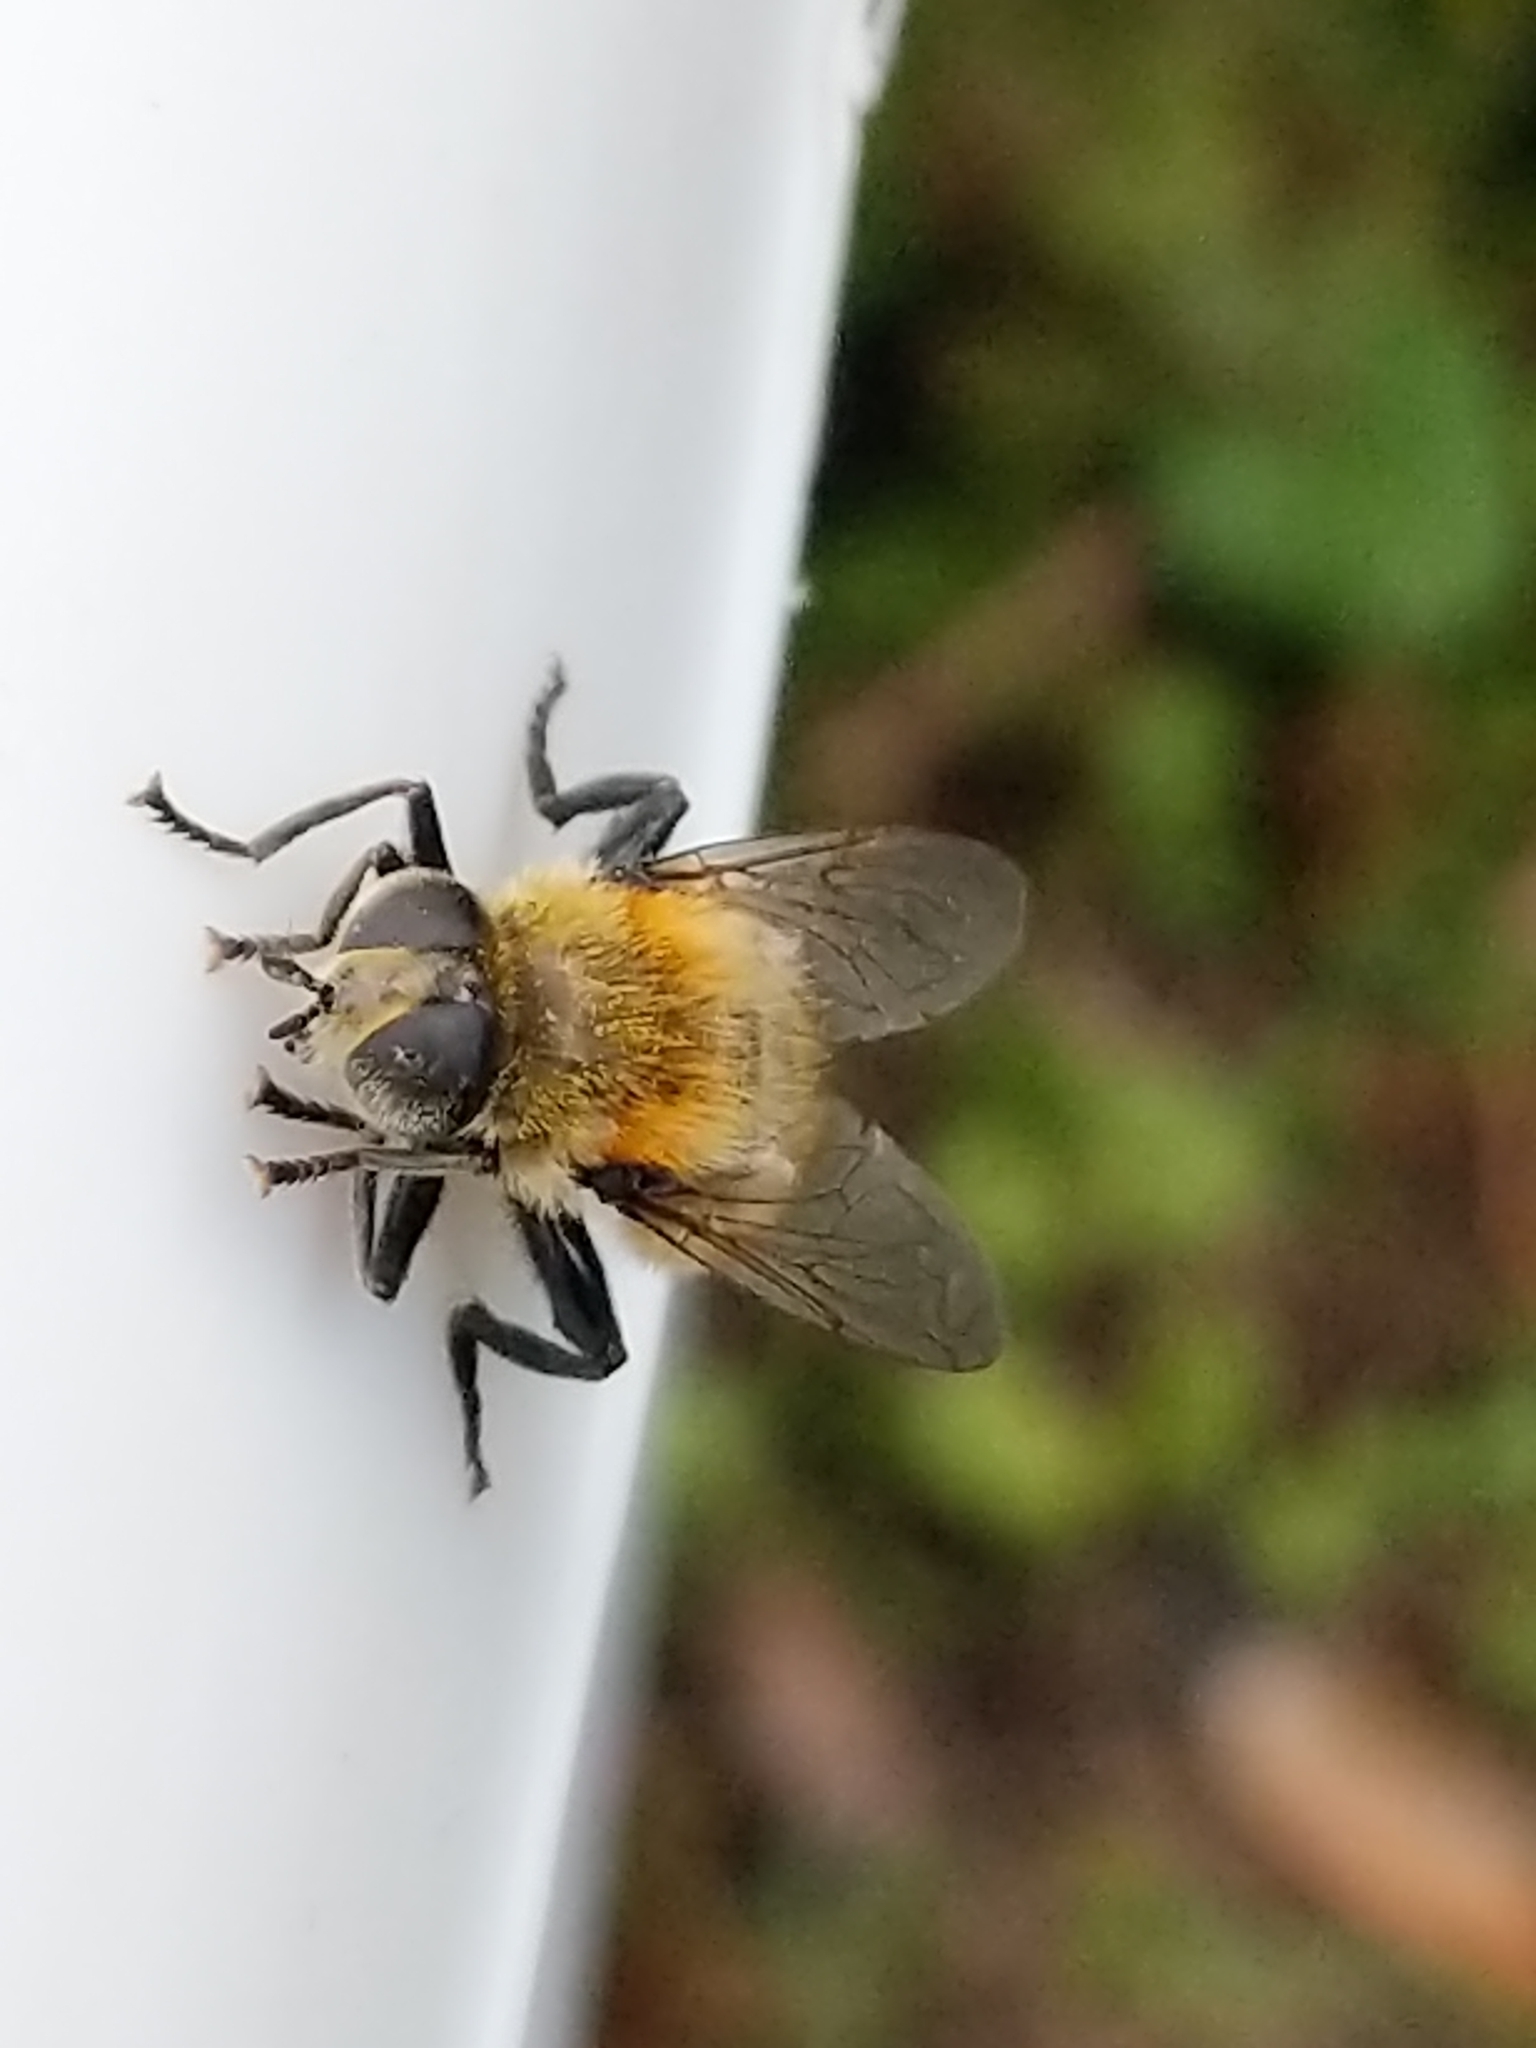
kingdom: Animalia
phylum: Arthropoda
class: Insecta
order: Diptera
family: Syrphidae
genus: Merodon
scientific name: Merodon equestris
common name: Greater bulb-fly
